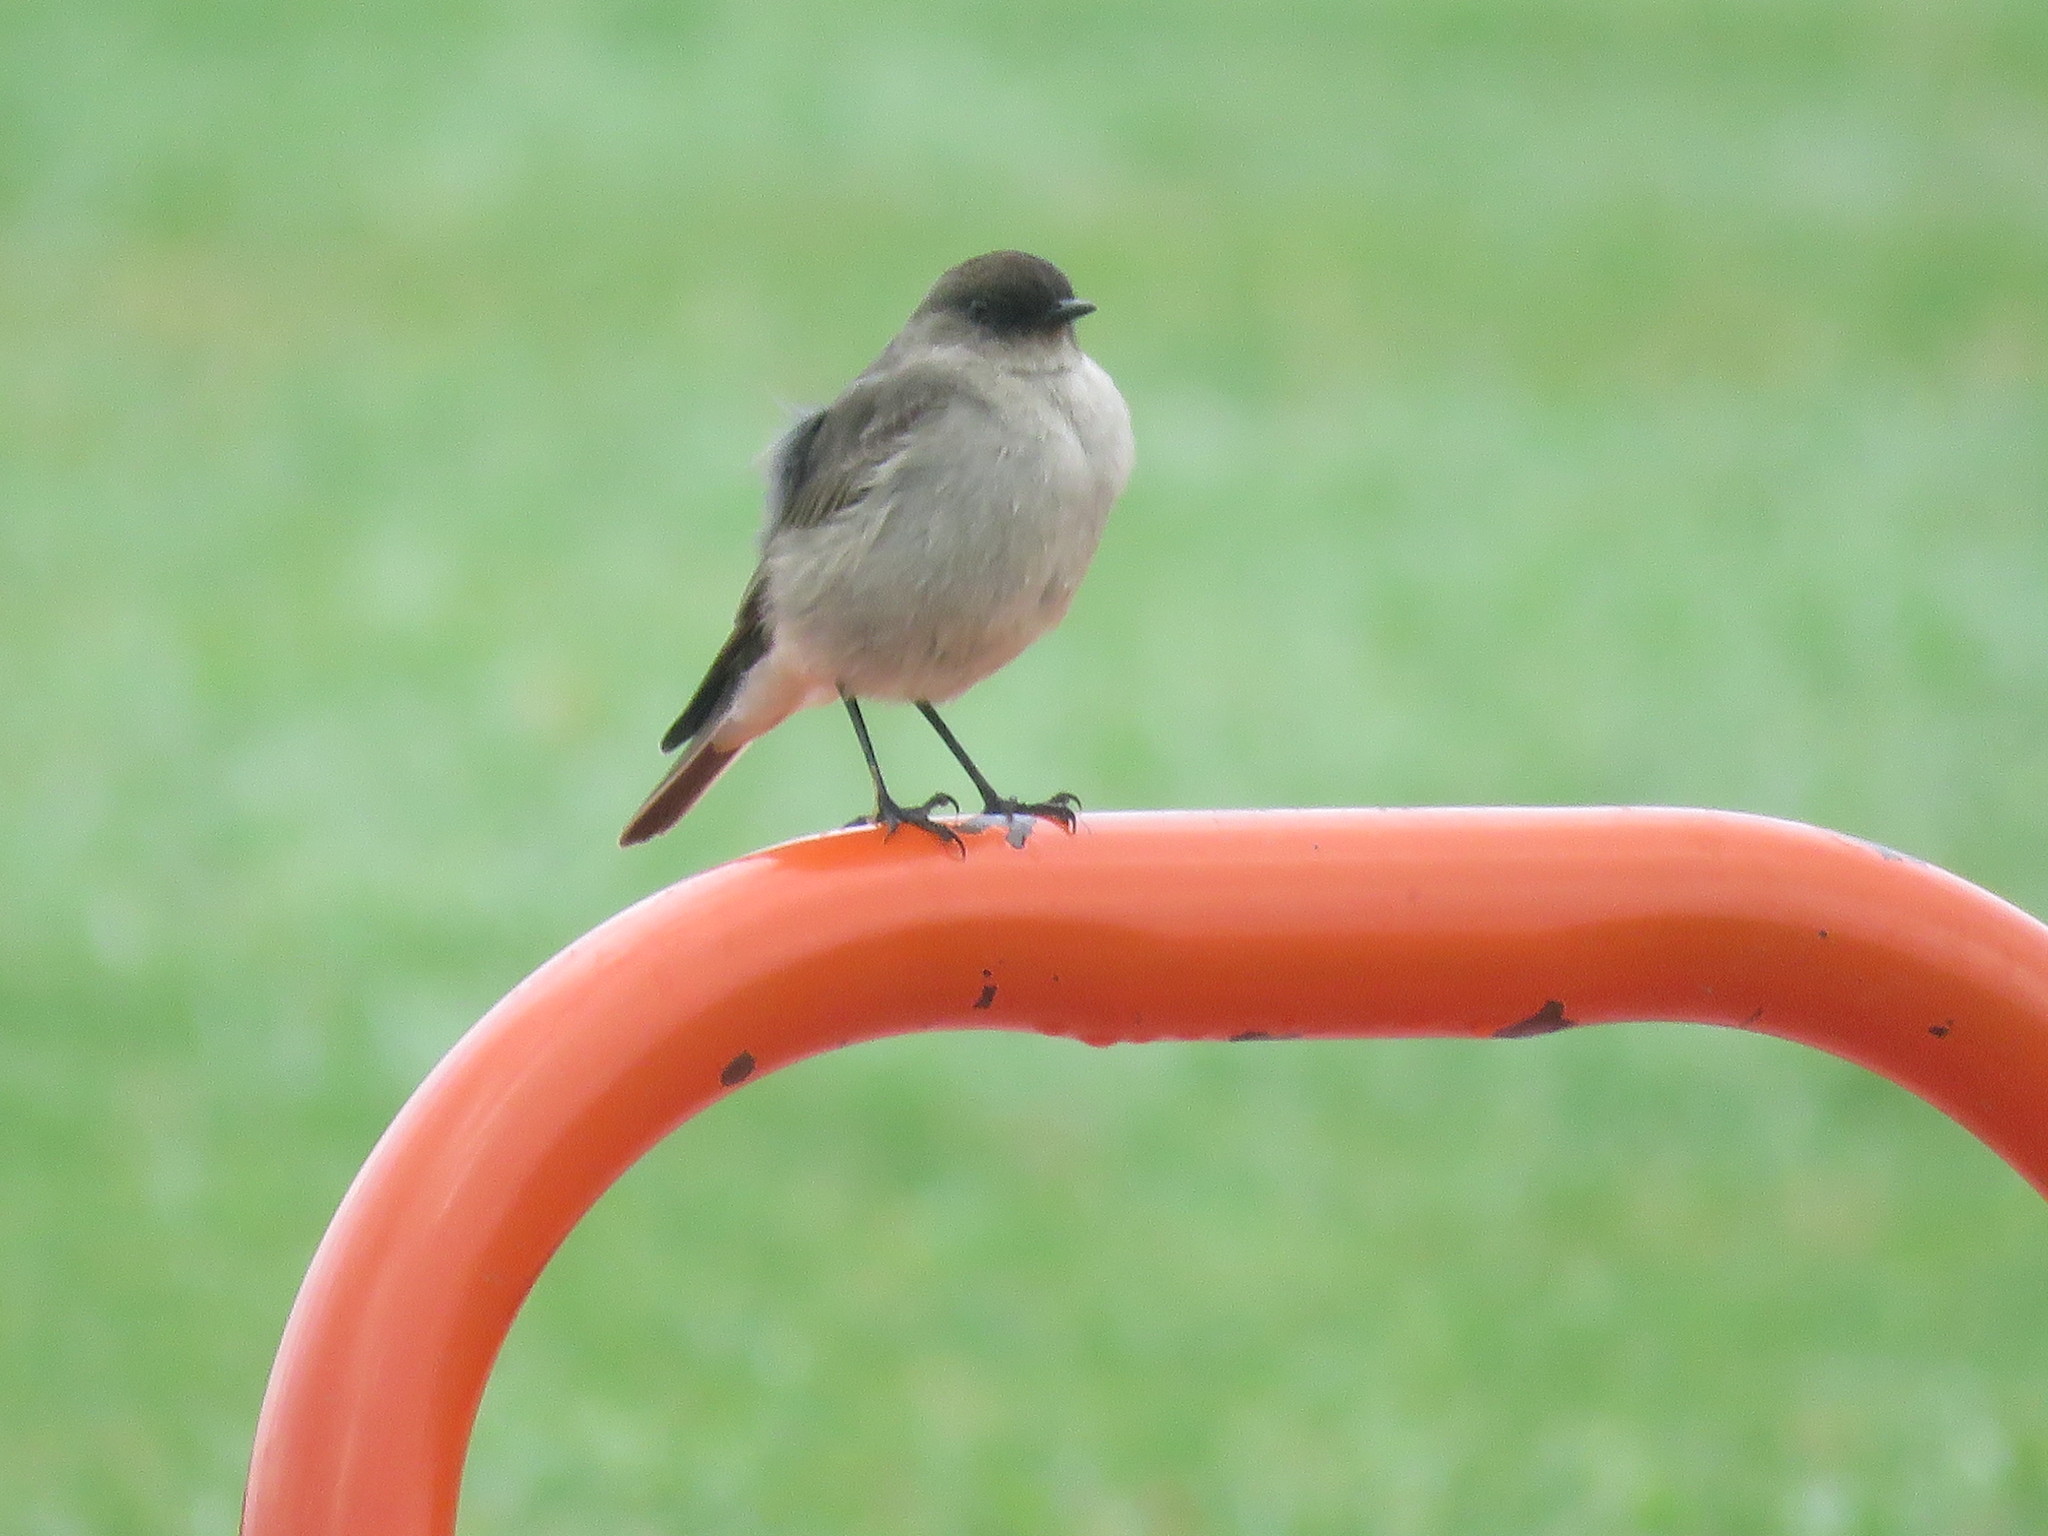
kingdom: Animalia
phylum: Chordata
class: Aves
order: Passeriformes
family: Tyrannidae
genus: Muscisaxicola
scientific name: Muscisaxicola maclovianus
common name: Dark-faced ground tyrant
